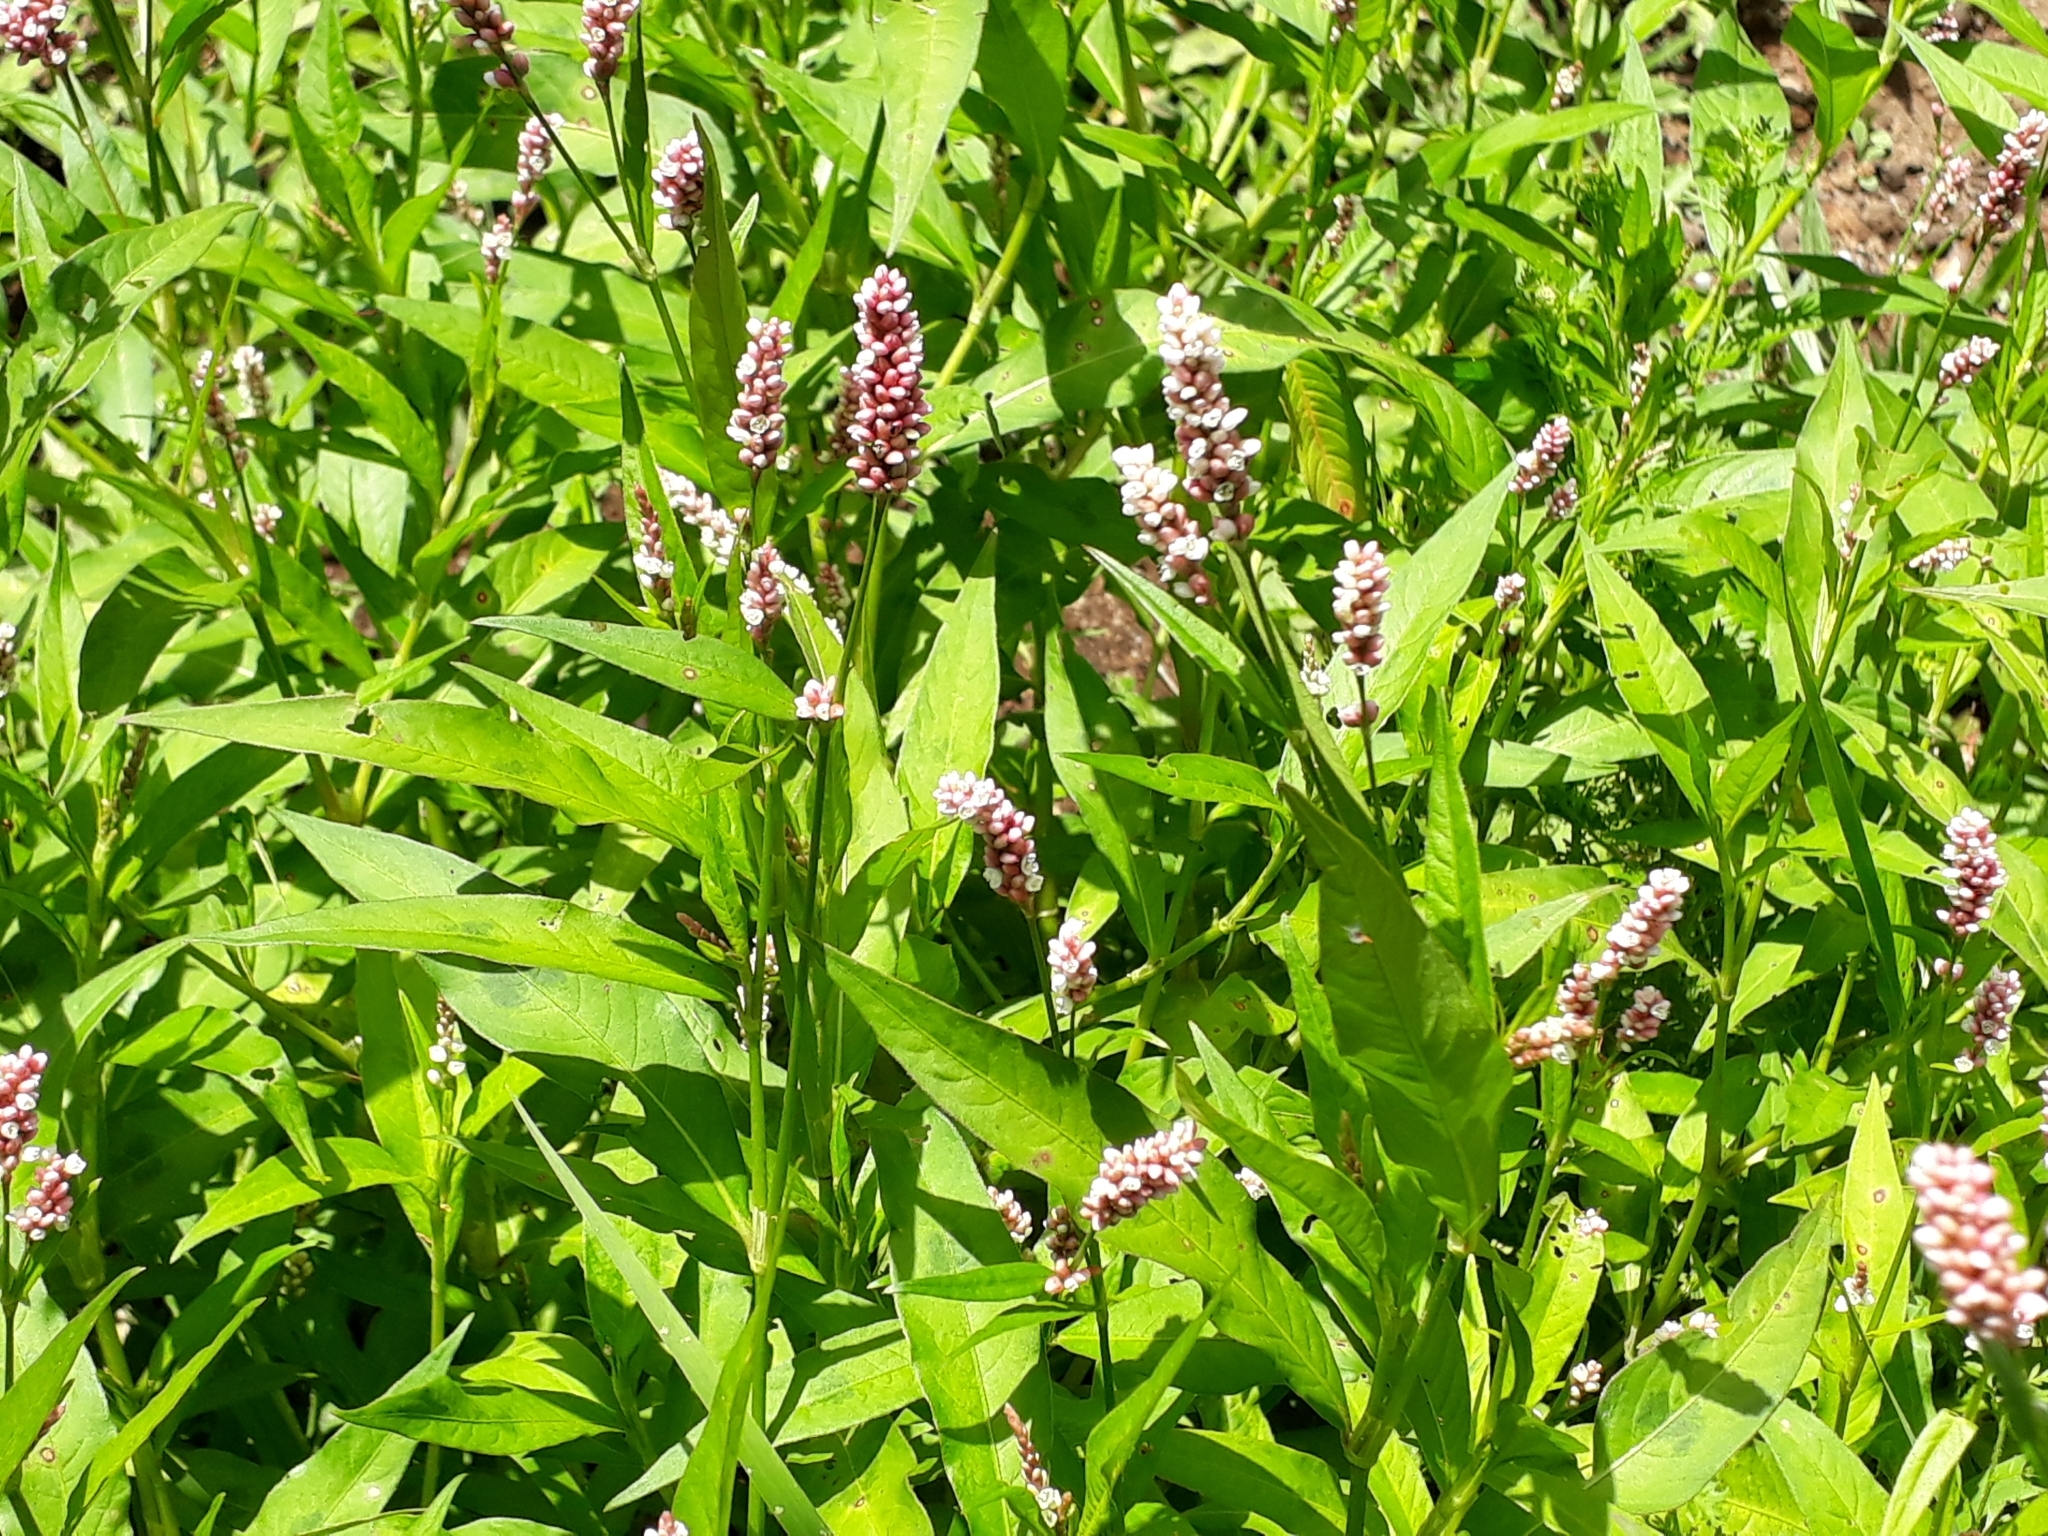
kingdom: Plantae
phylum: Tracheophyta
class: Magnoliopsida
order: Caryophyllales
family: Polygonaceae
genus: Persicaria
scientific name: Persicaria maculosa
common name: Redshank
